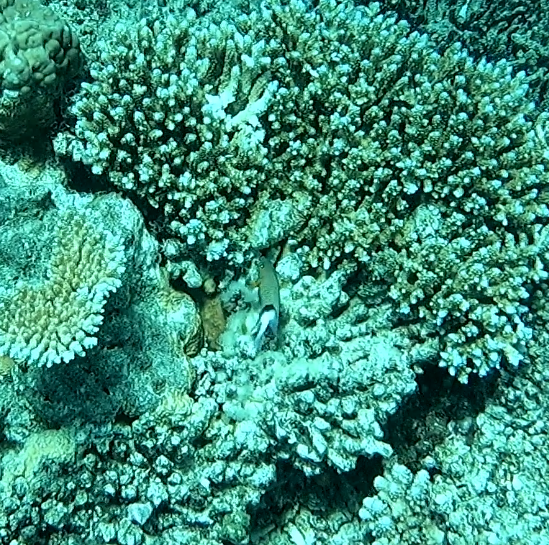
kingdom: Animalia
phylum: Chordata
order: Perciformes
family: Pomacentridae
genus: Plectroglyphidodon
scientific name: Plectroglyphidodon dickii
